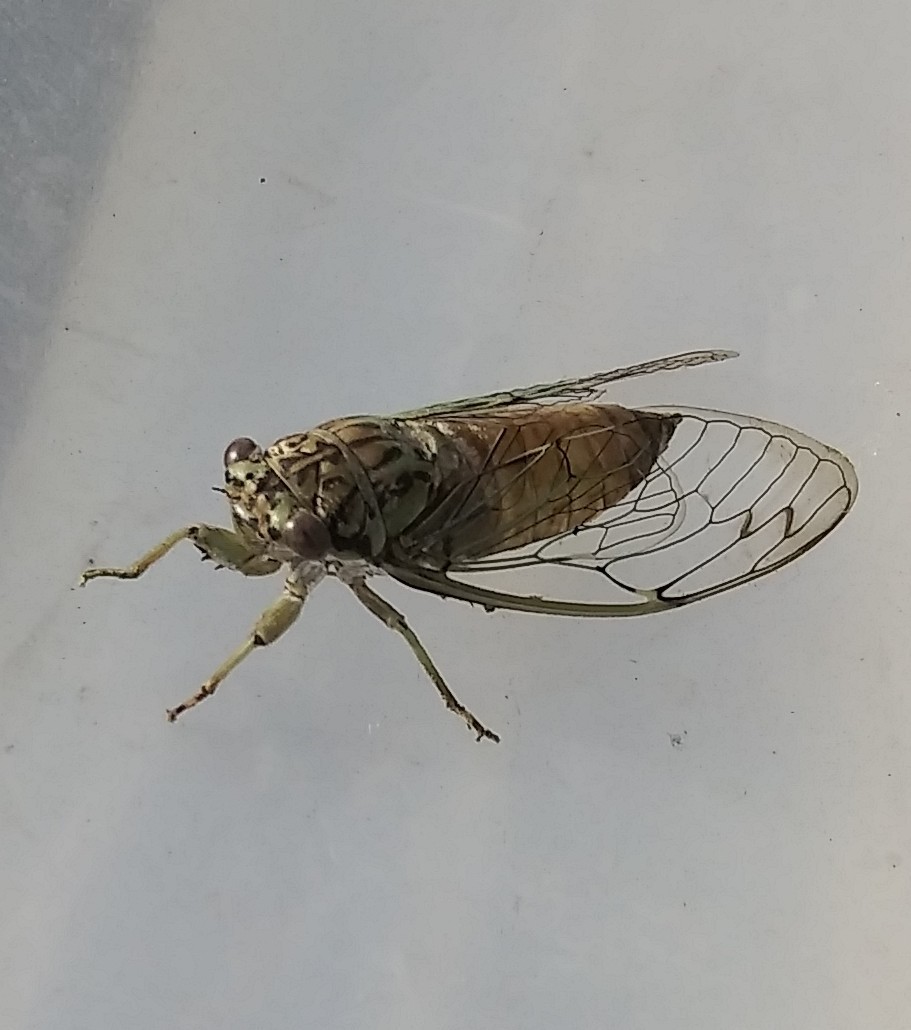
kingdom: Animalia
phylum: Arthropoda
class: Insecta
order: Hemiptera
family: Cicadidae
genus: Neocicada
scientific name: Neocicada hieroglyphica
